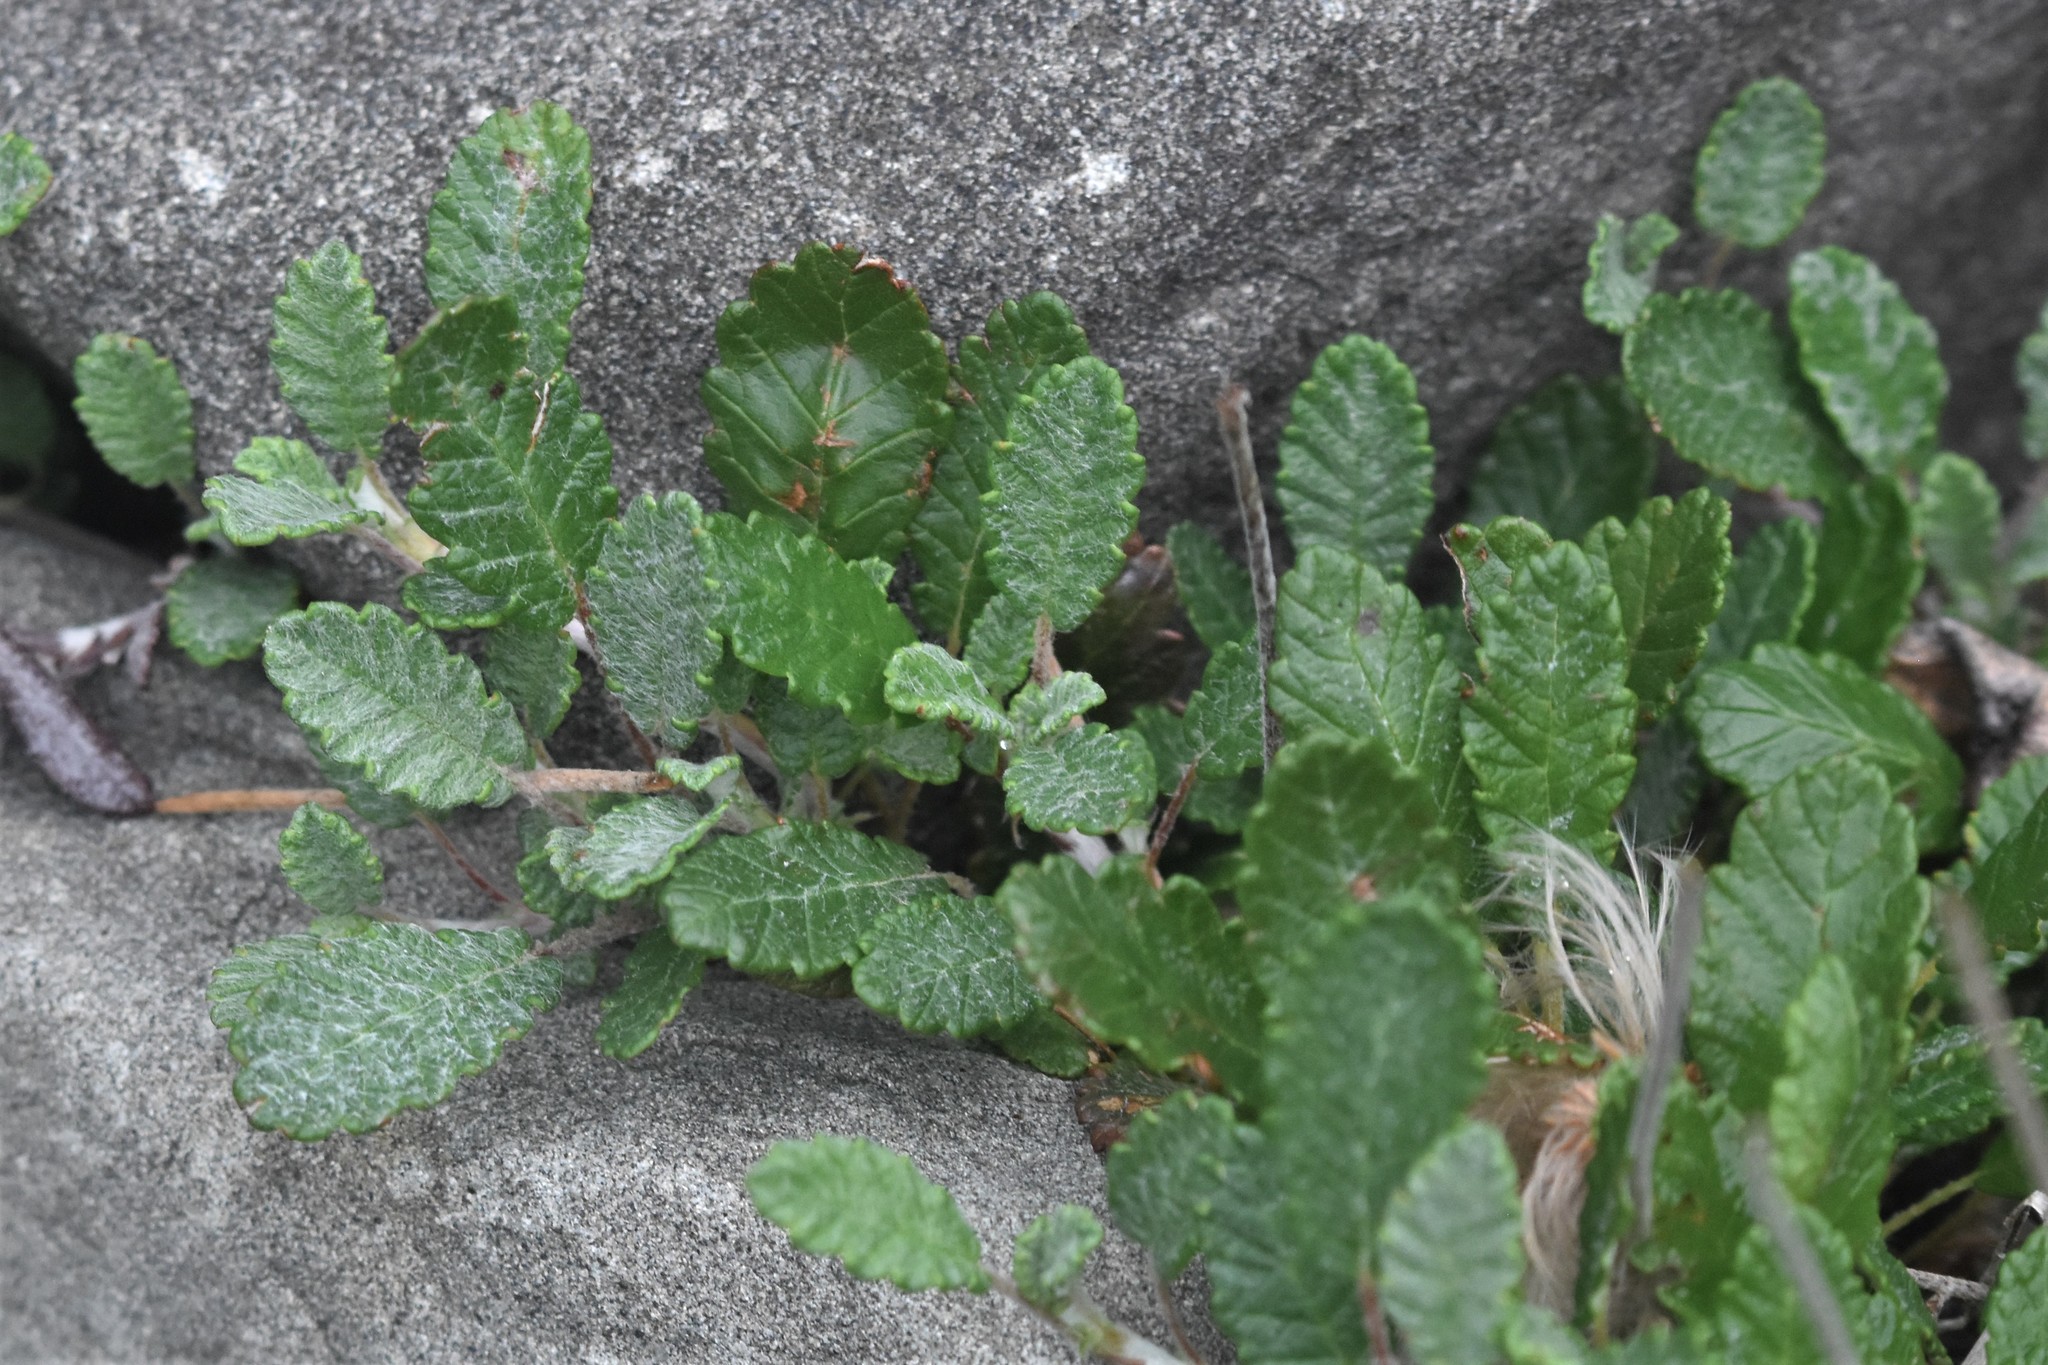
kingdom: Plantae
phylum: Tracheophyta
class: Magnoliopsida
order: Rosales
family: Rosaceae
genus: Dryas
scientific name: Dryas drummondii
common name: Drummond's dryad
